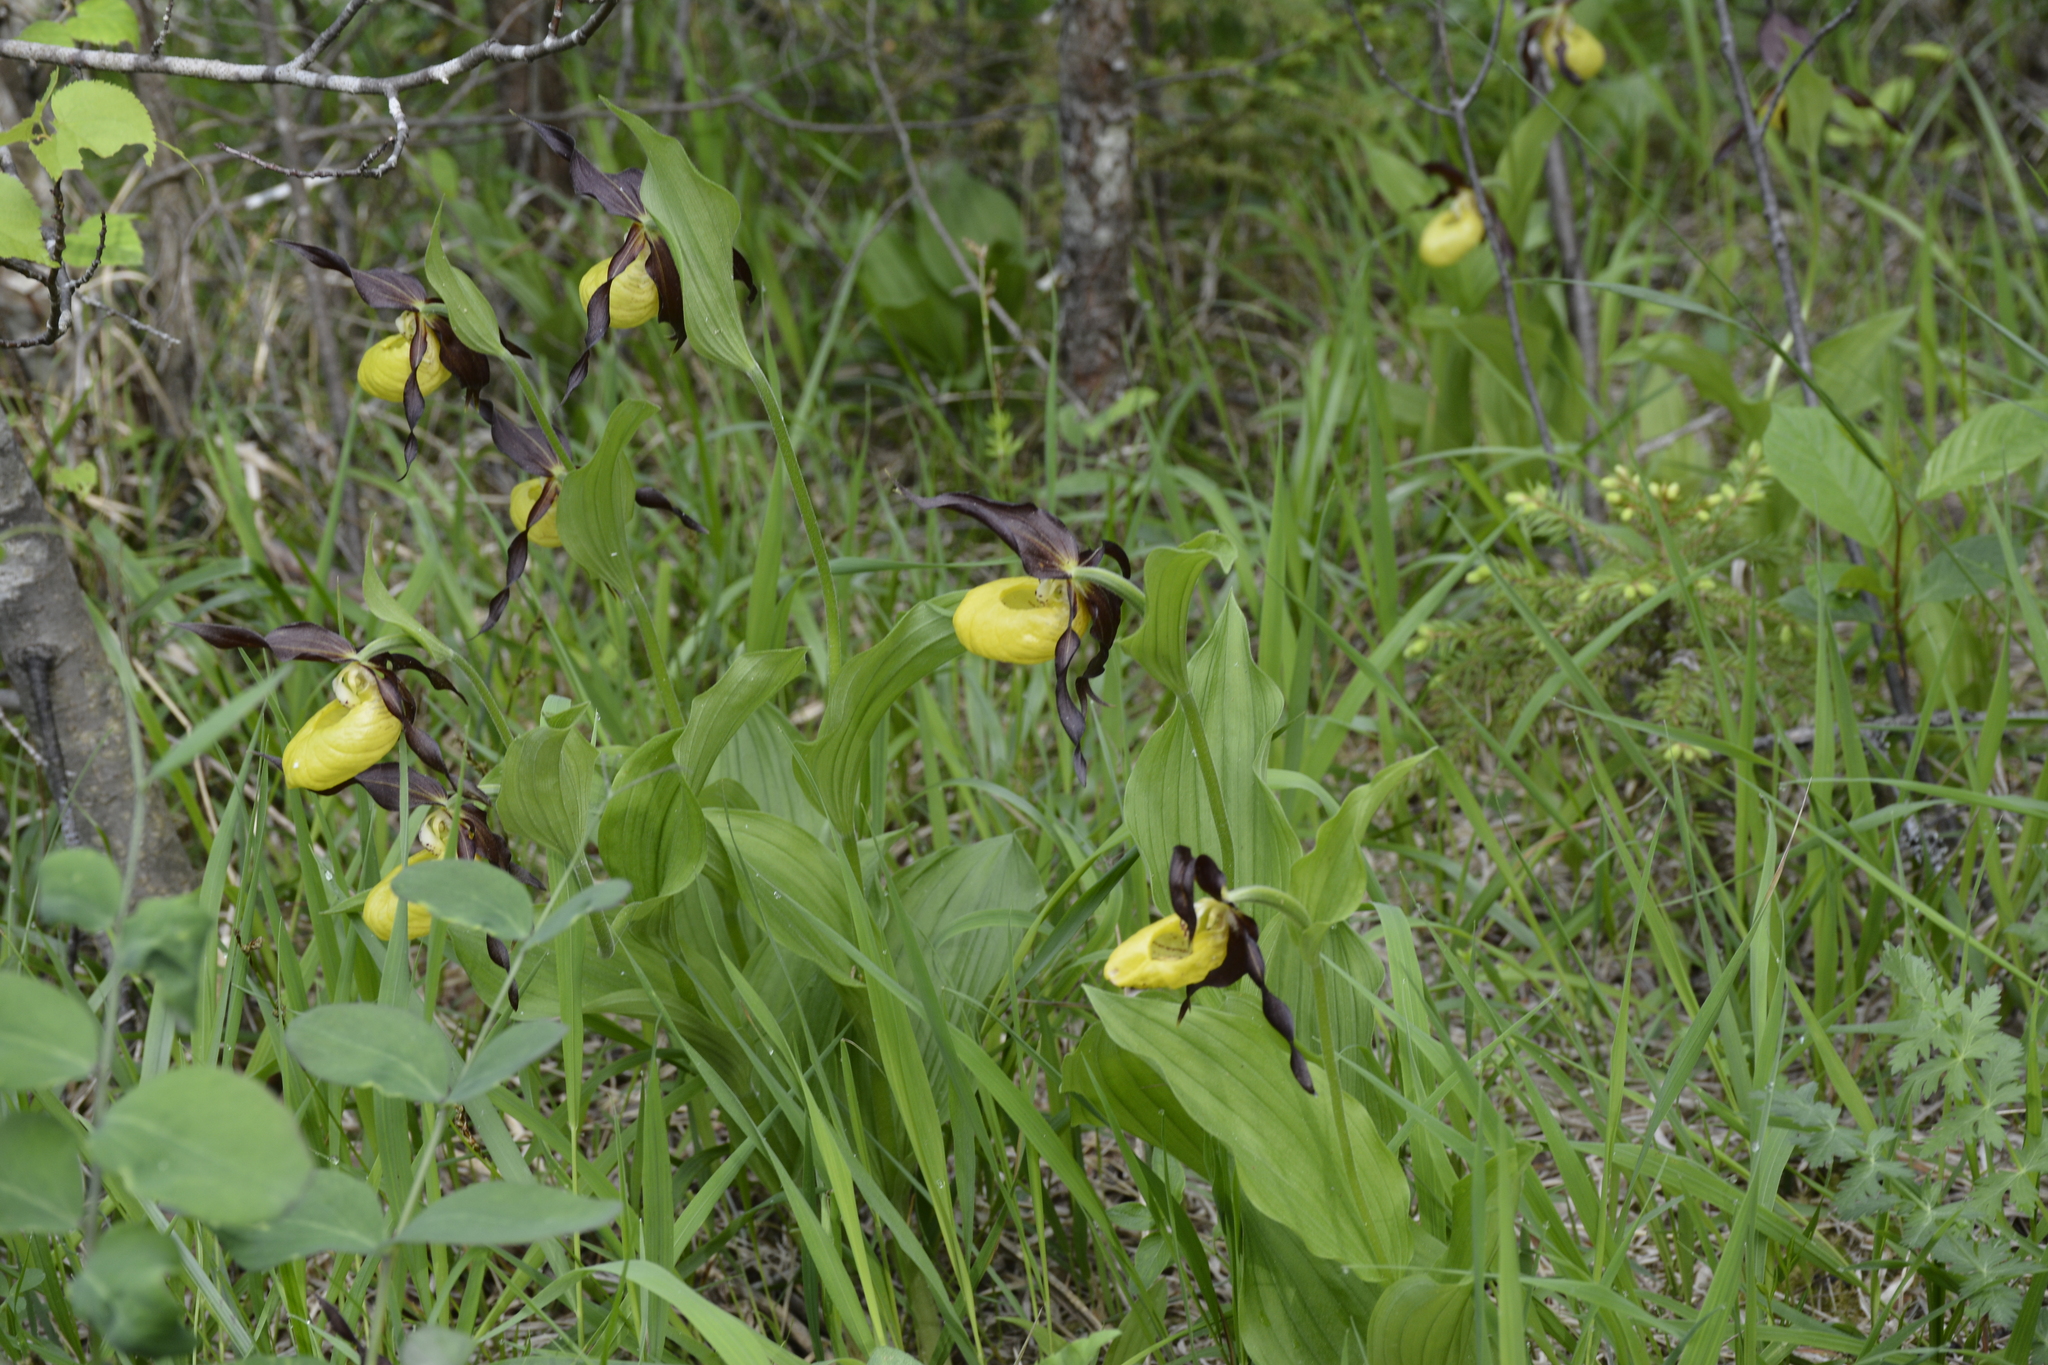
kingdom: Plantae
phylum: Tracheophyta
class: Liliopsida
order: Asparagales
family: Orchidaceae
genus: Cypripedium
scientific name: Cypripedium calceolus
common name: Lady's-slipper
